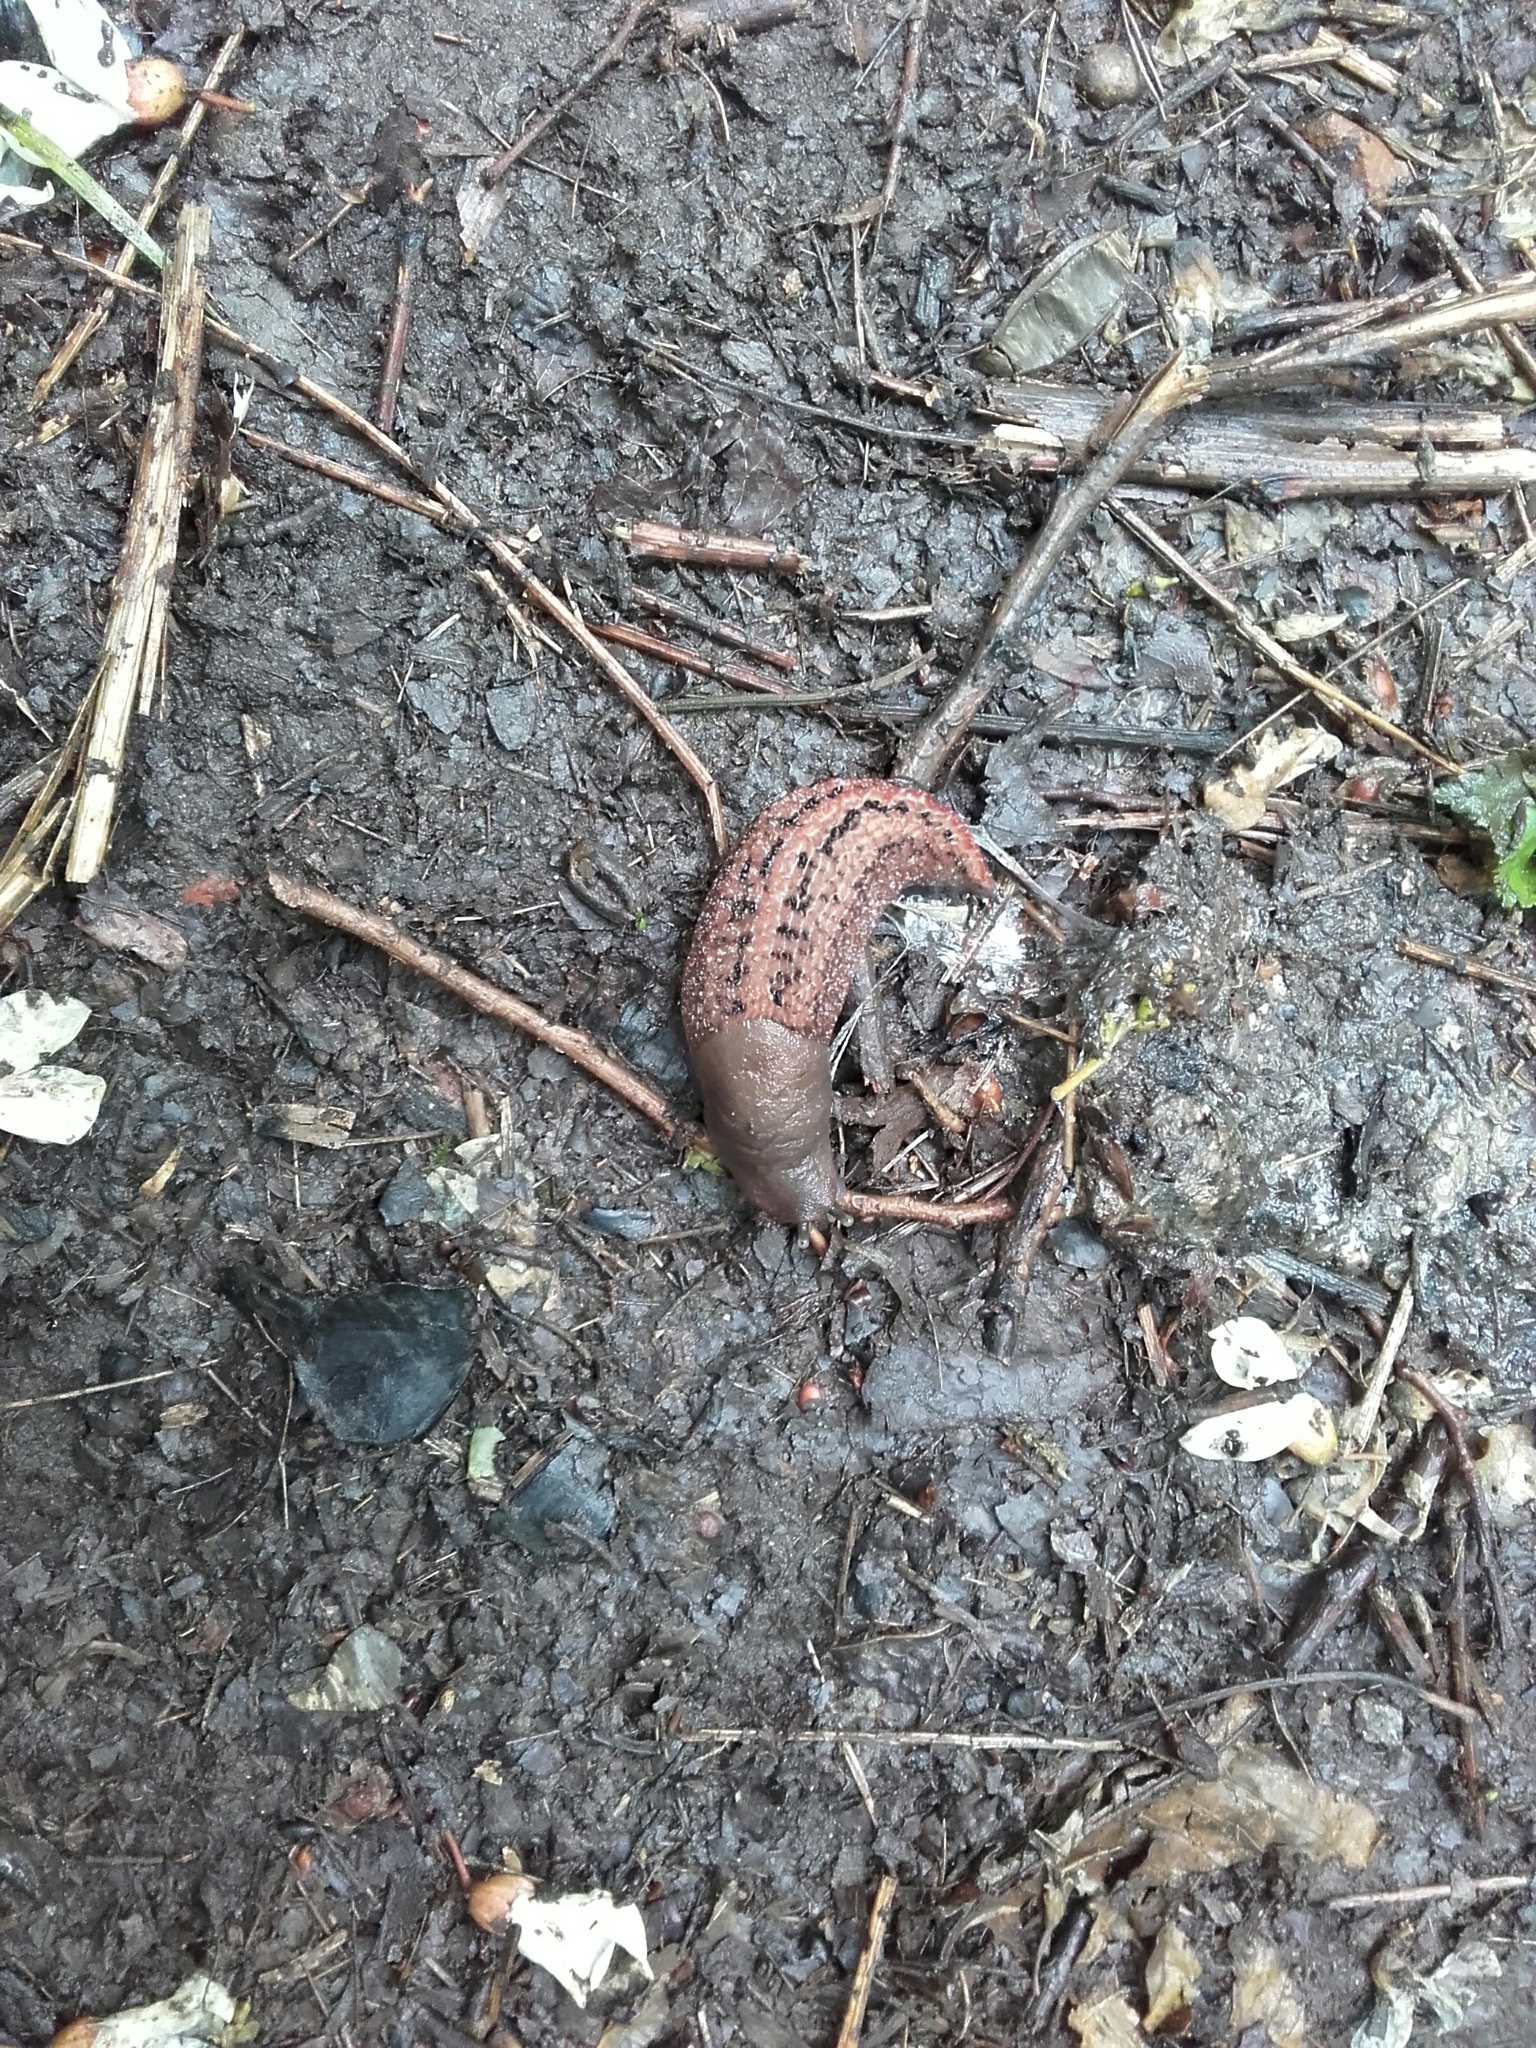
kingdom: Animalia
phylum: Mollusca
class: Gastropoda
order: Stylommatophora
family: Limacidae
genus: Limax
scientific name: Limax dacampi
